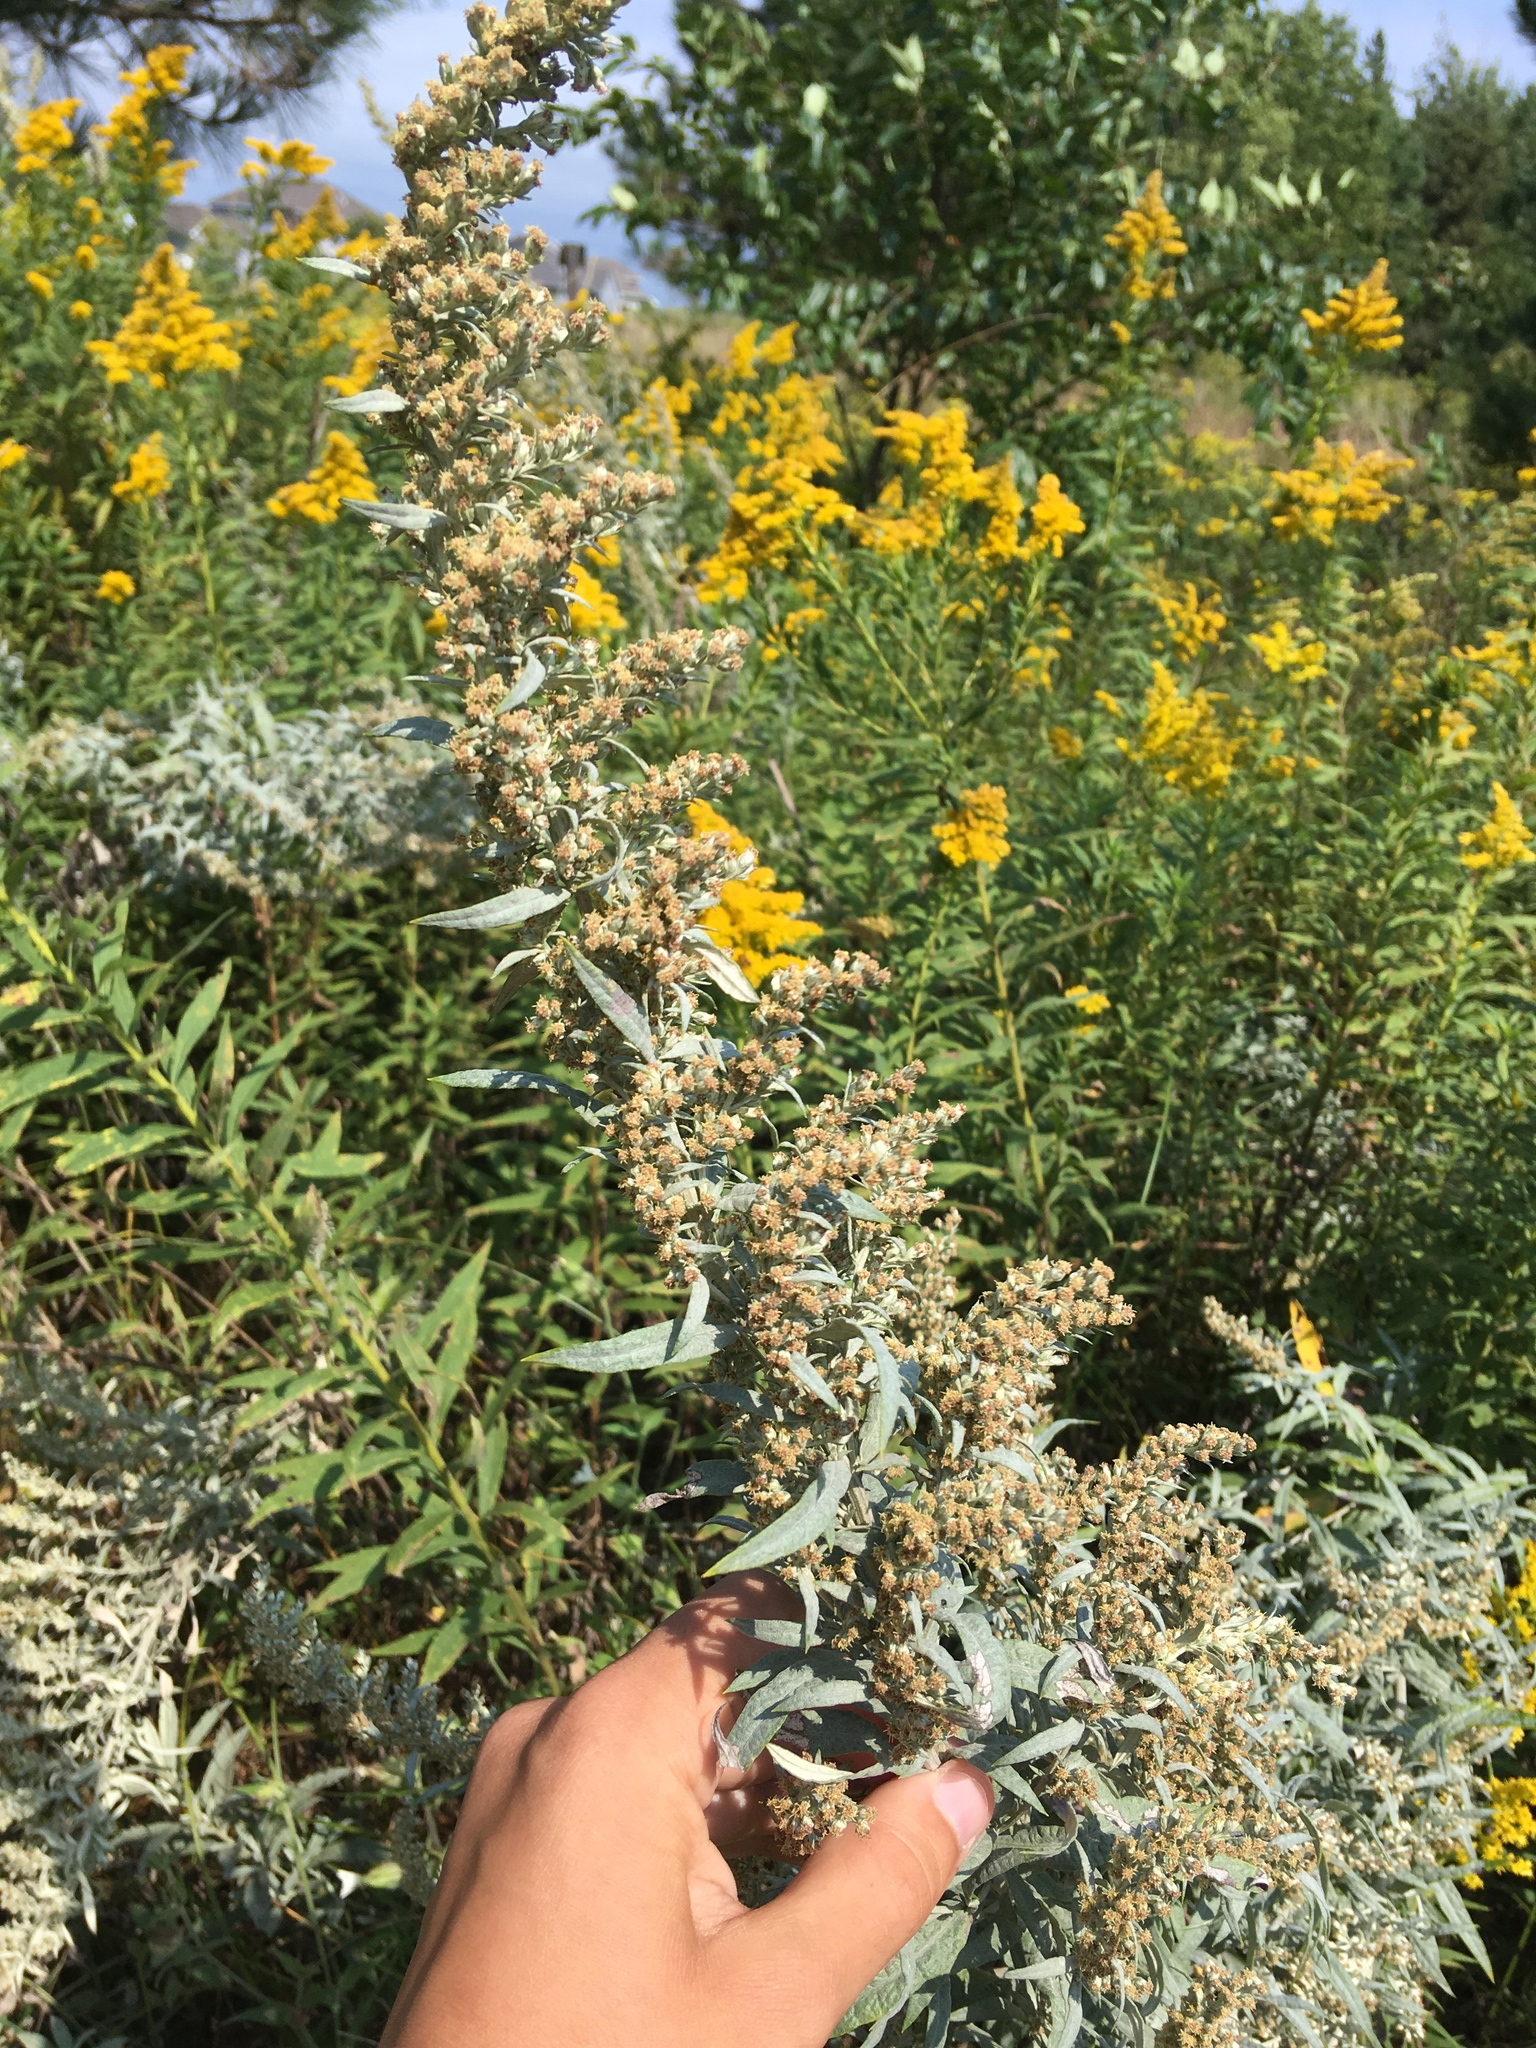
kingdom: Plantae
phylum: Tracheophyta
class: Magnoliopsida
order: Asterales
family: Asteraceae
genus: Artemisia
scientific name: Artemisia ludoviciana
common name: Western mugwort
